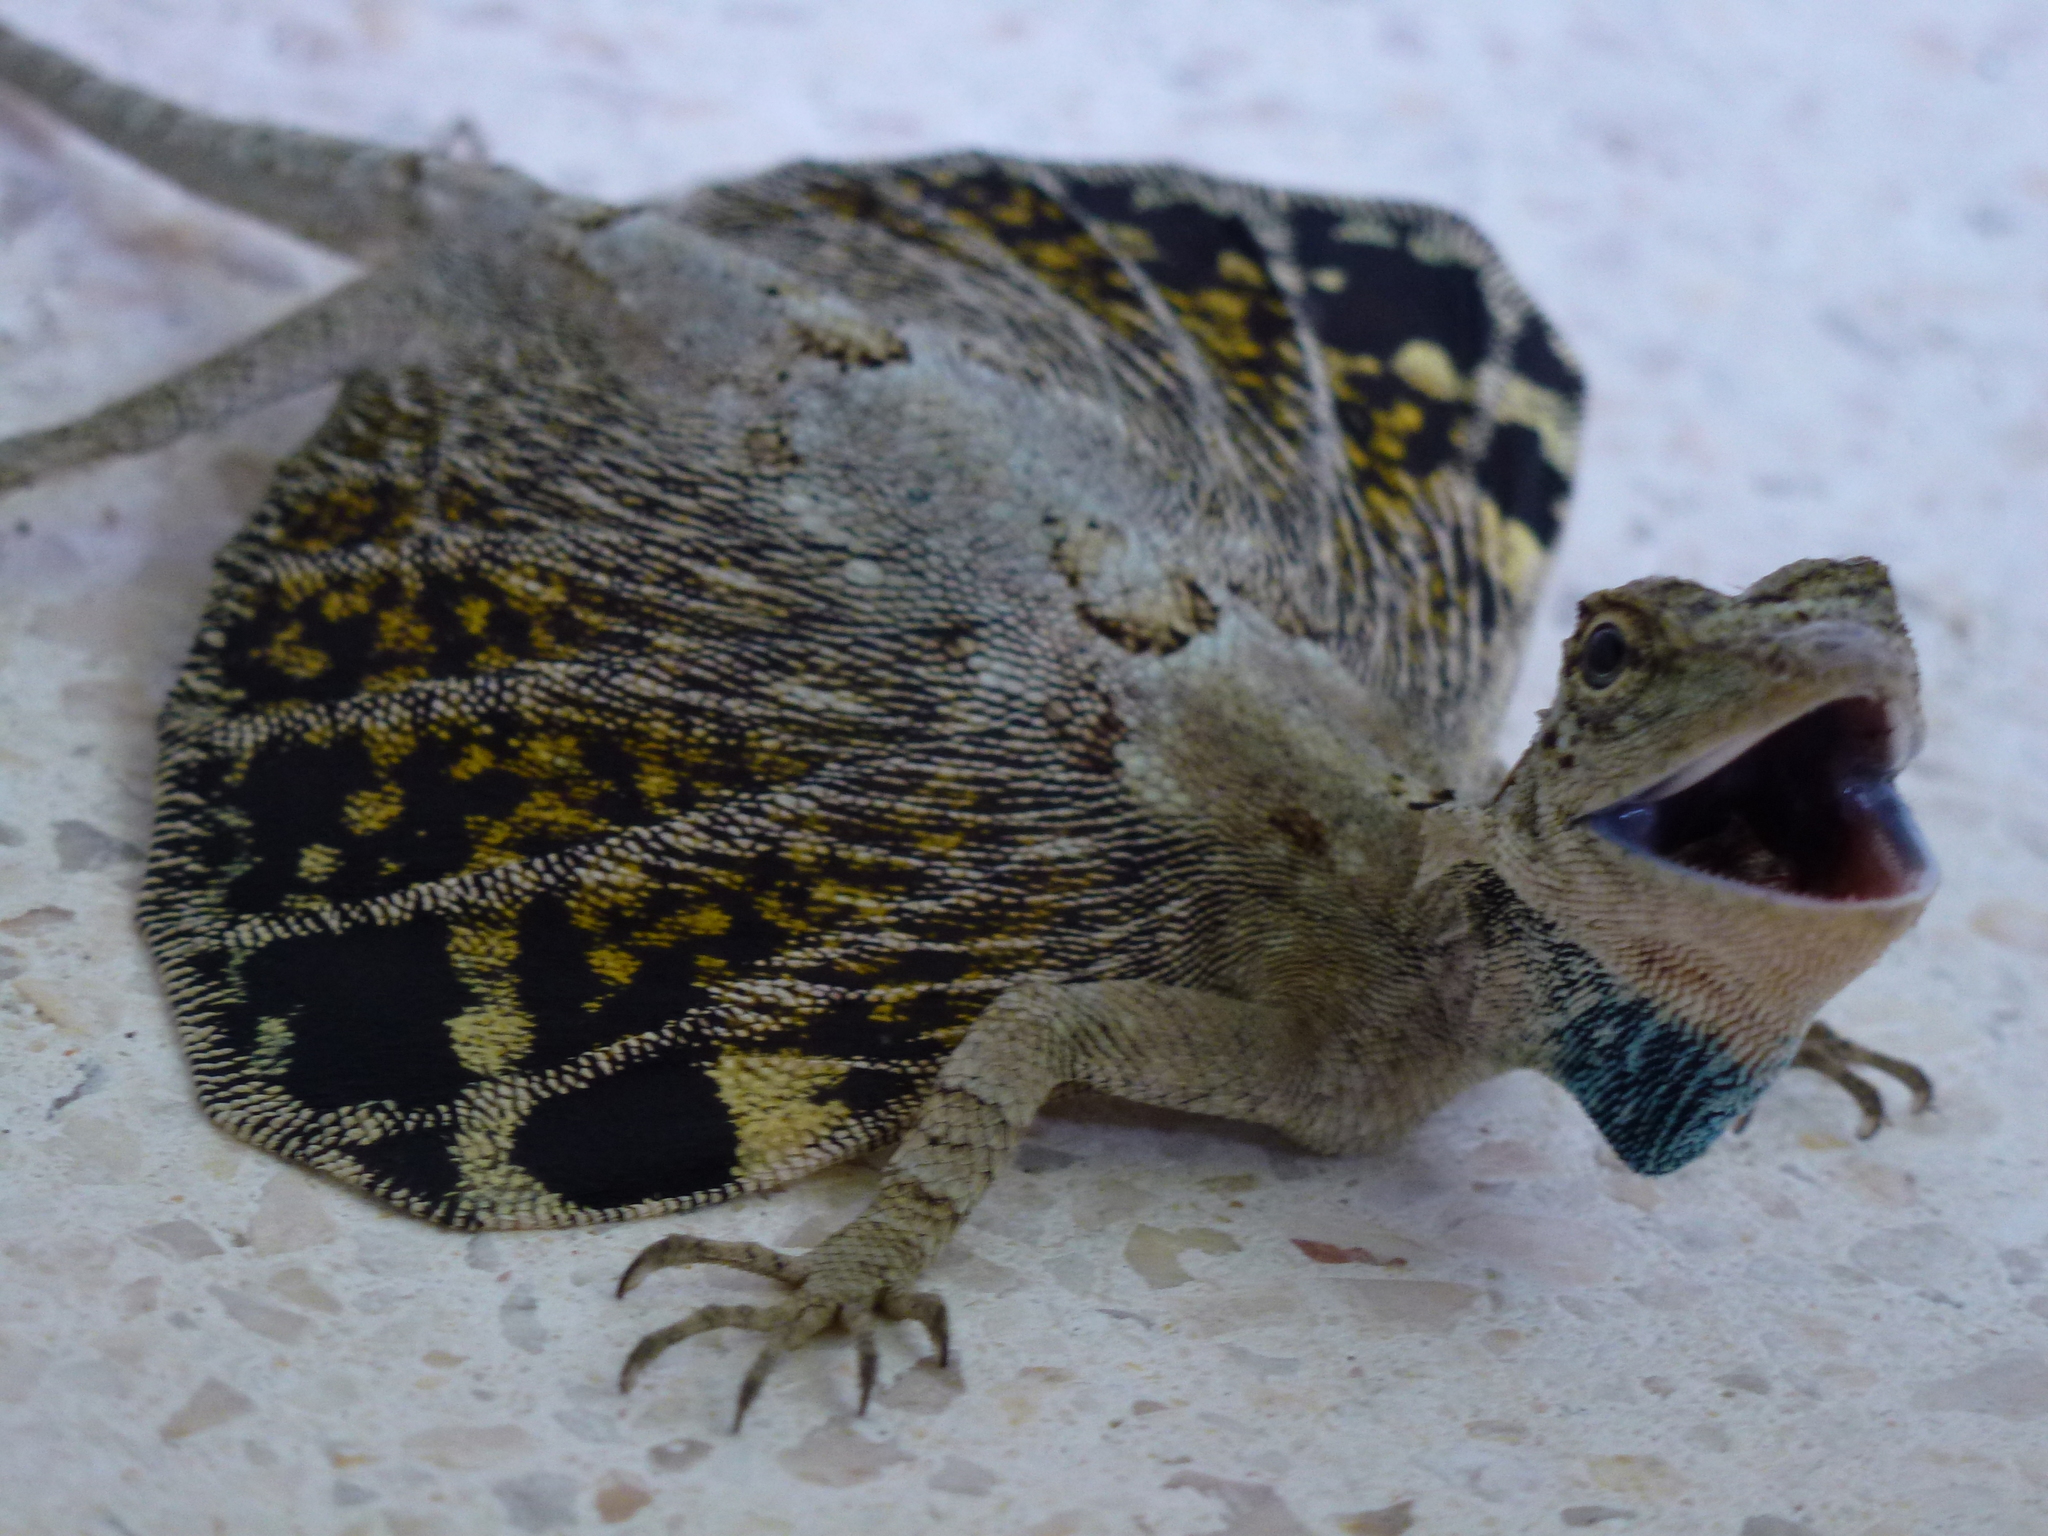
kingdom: Animalia
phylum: Chordata
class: Squamata
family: Agamidae
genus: Draco
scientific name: Draco volans
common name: Common flying dragon
